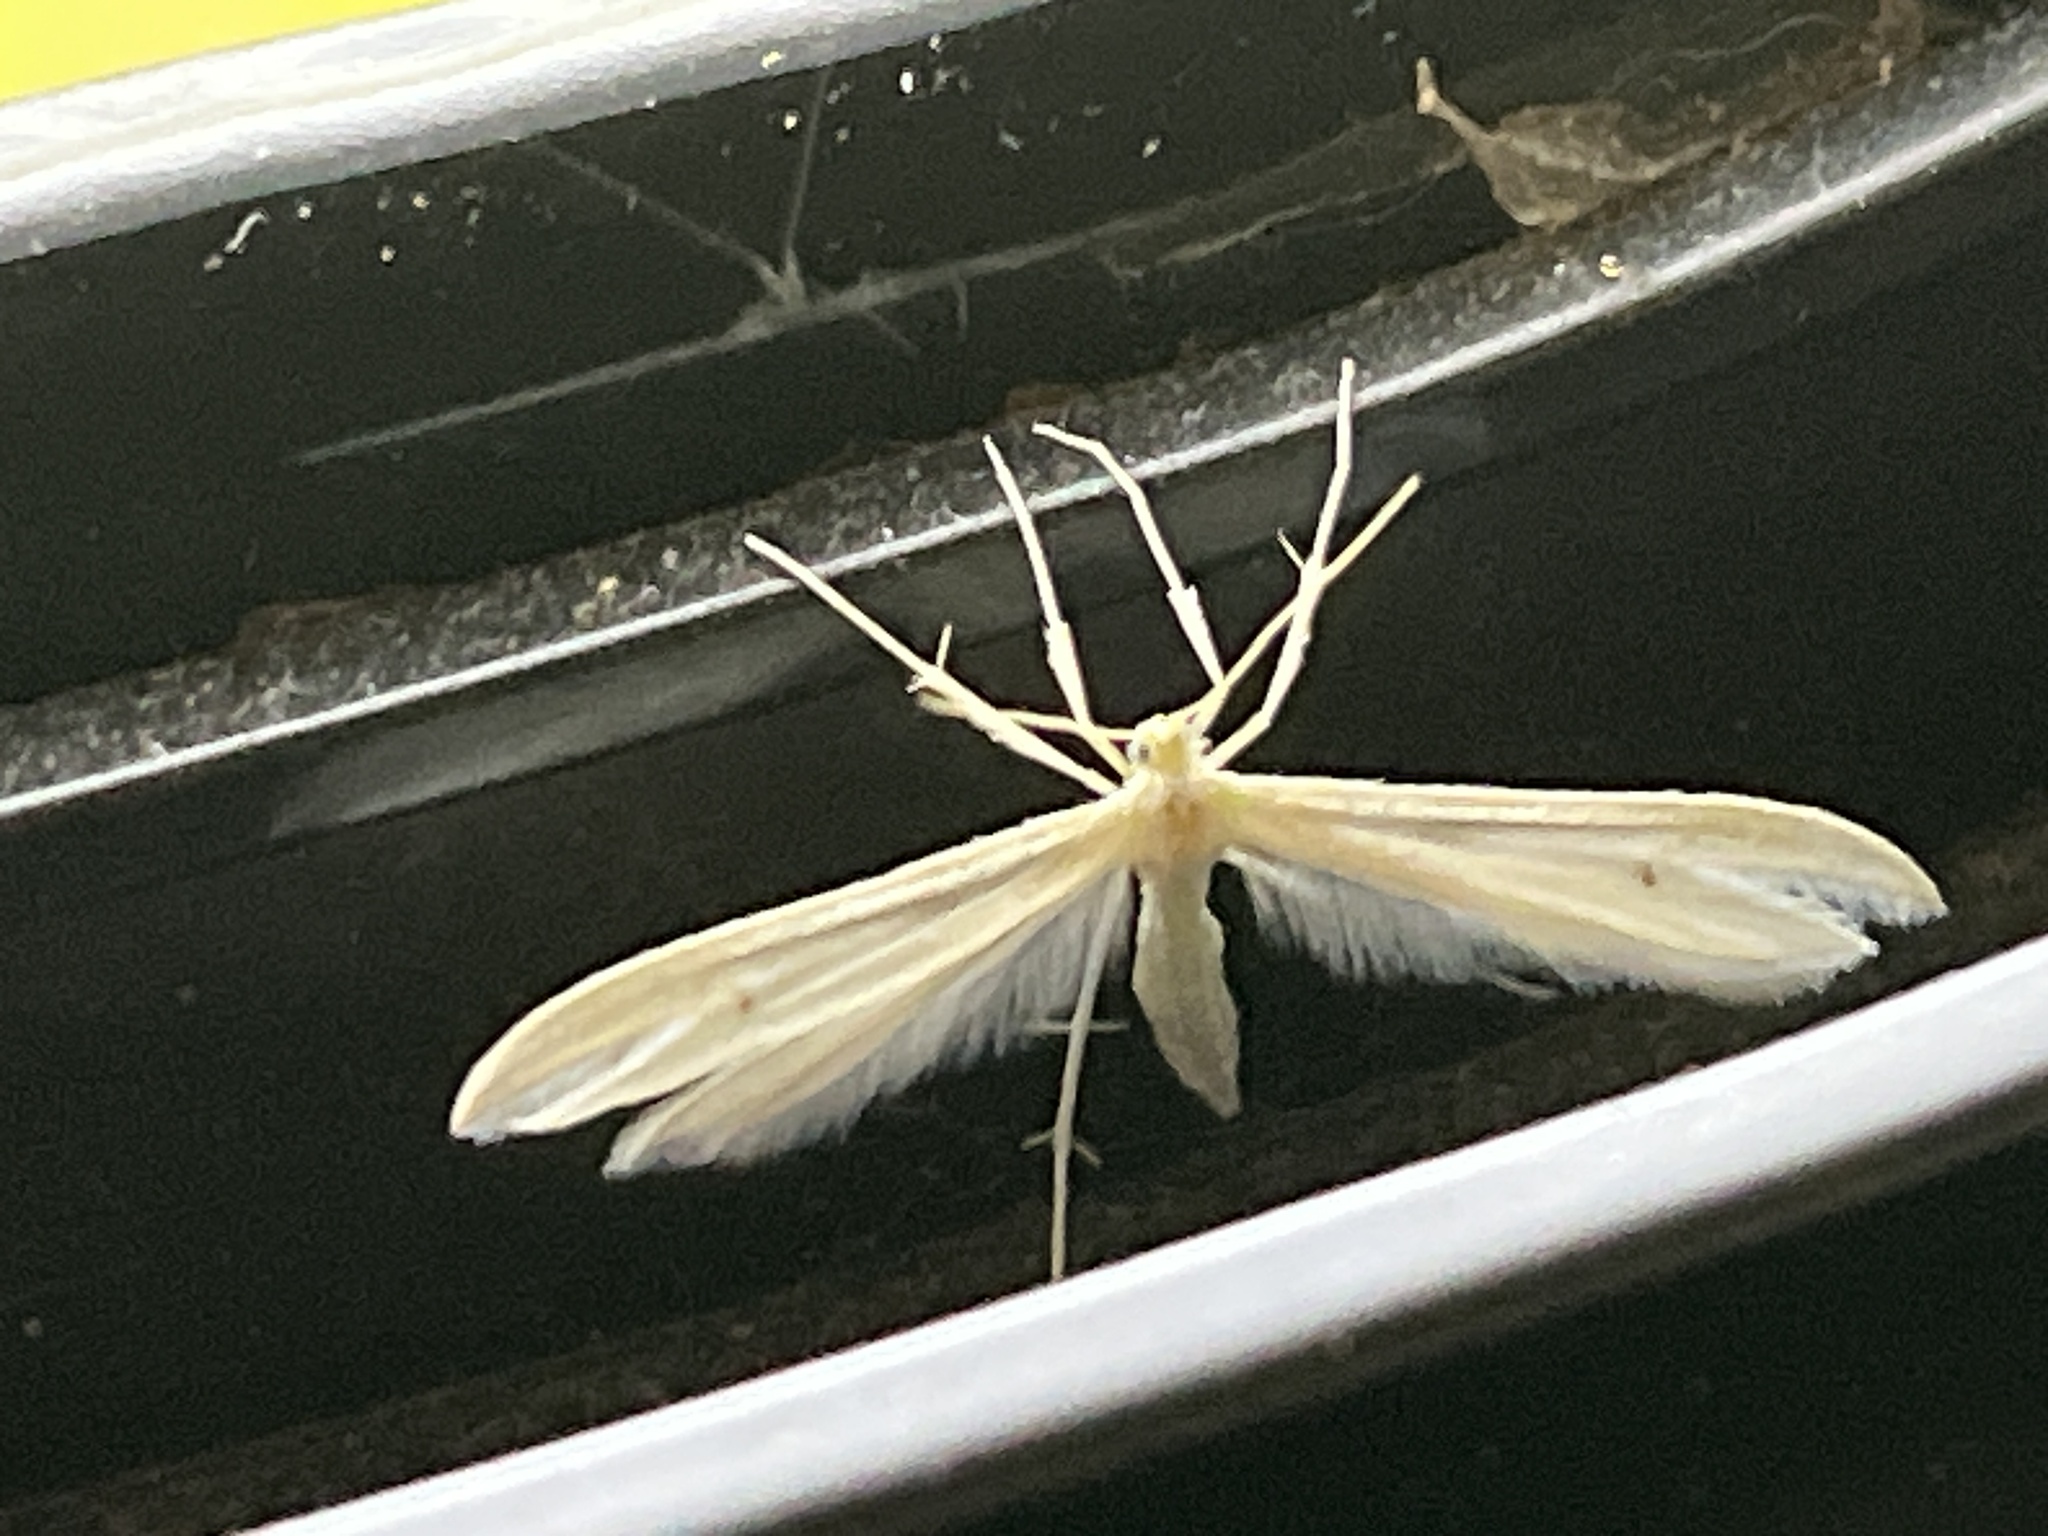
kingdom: Animalia
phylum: Arthropoda
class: Insecta
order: Lepidoptera
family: Pterophoridae
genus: Hellinsia
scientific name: Hellinsia homodactylus
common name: Plain plume moth
